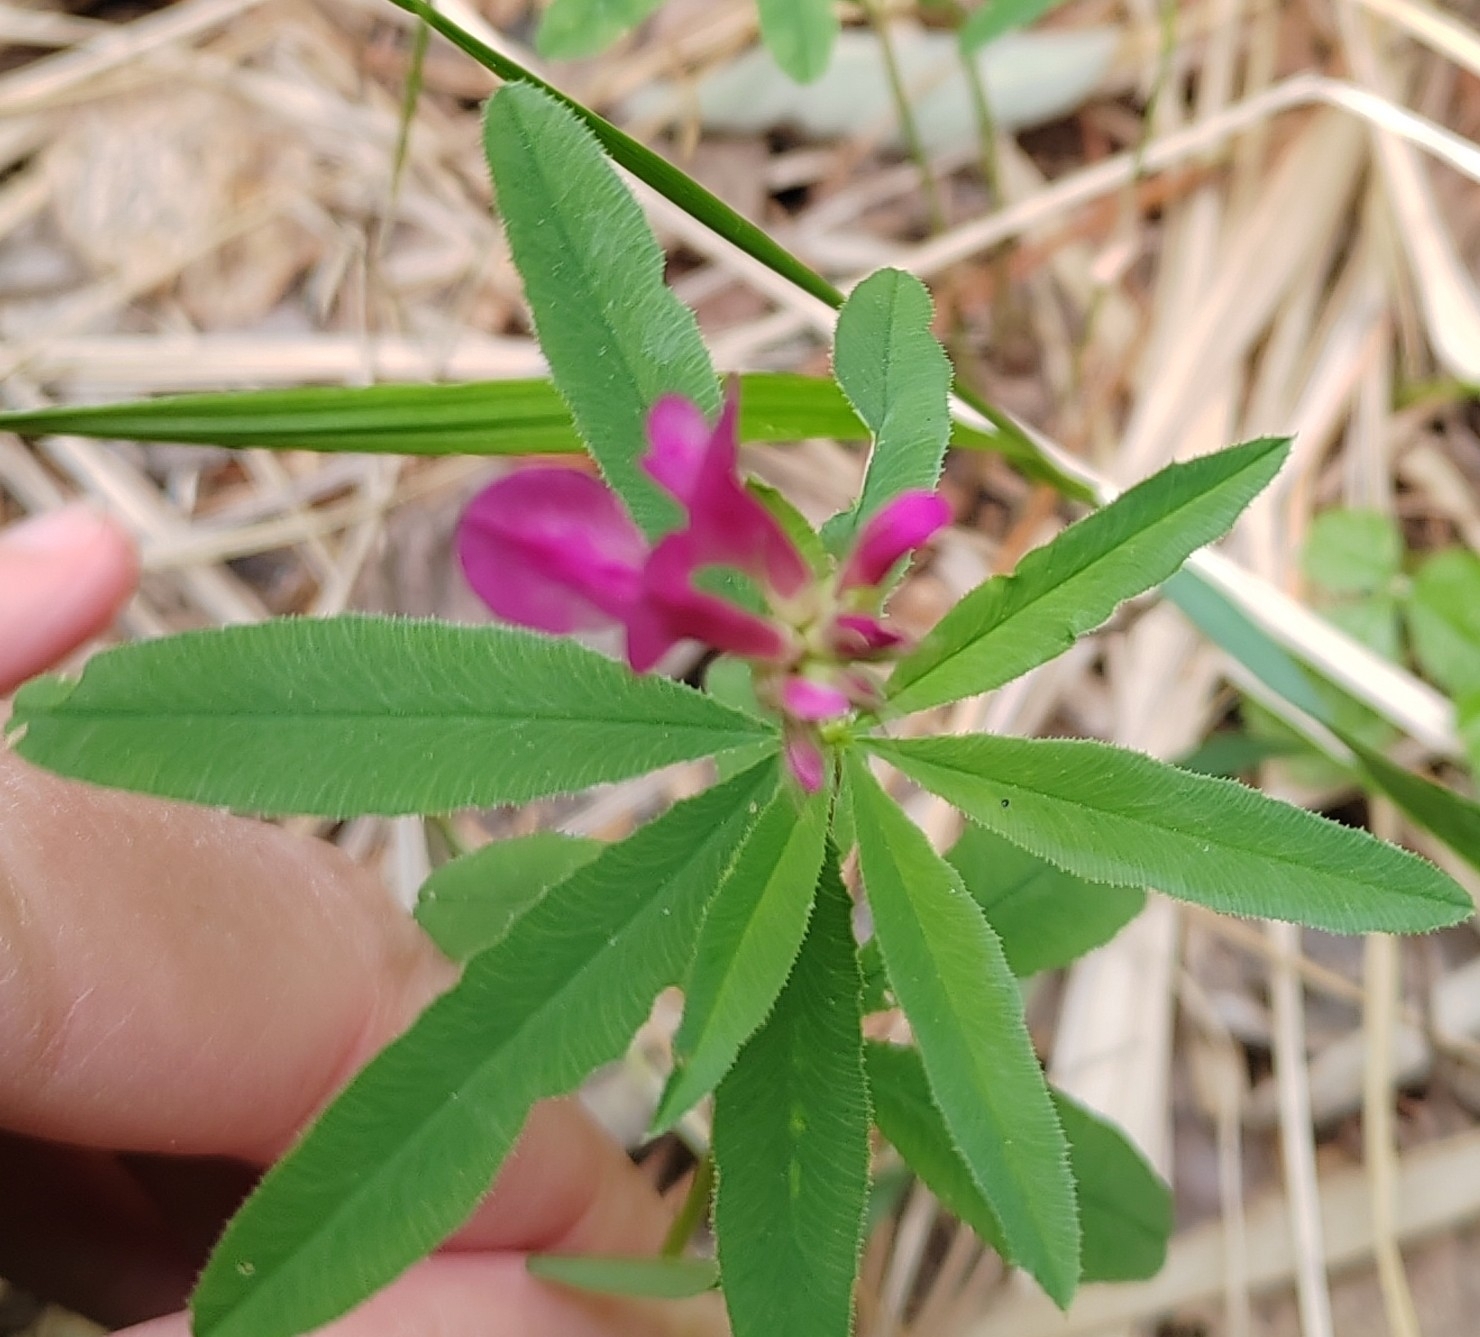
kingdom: Plantae
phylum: Tracheophyta
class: Magnoliopsida
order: Fabales
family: Fabaceae
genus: Trifolium
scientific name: Trifolium lupinaster
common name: Lupine clover
